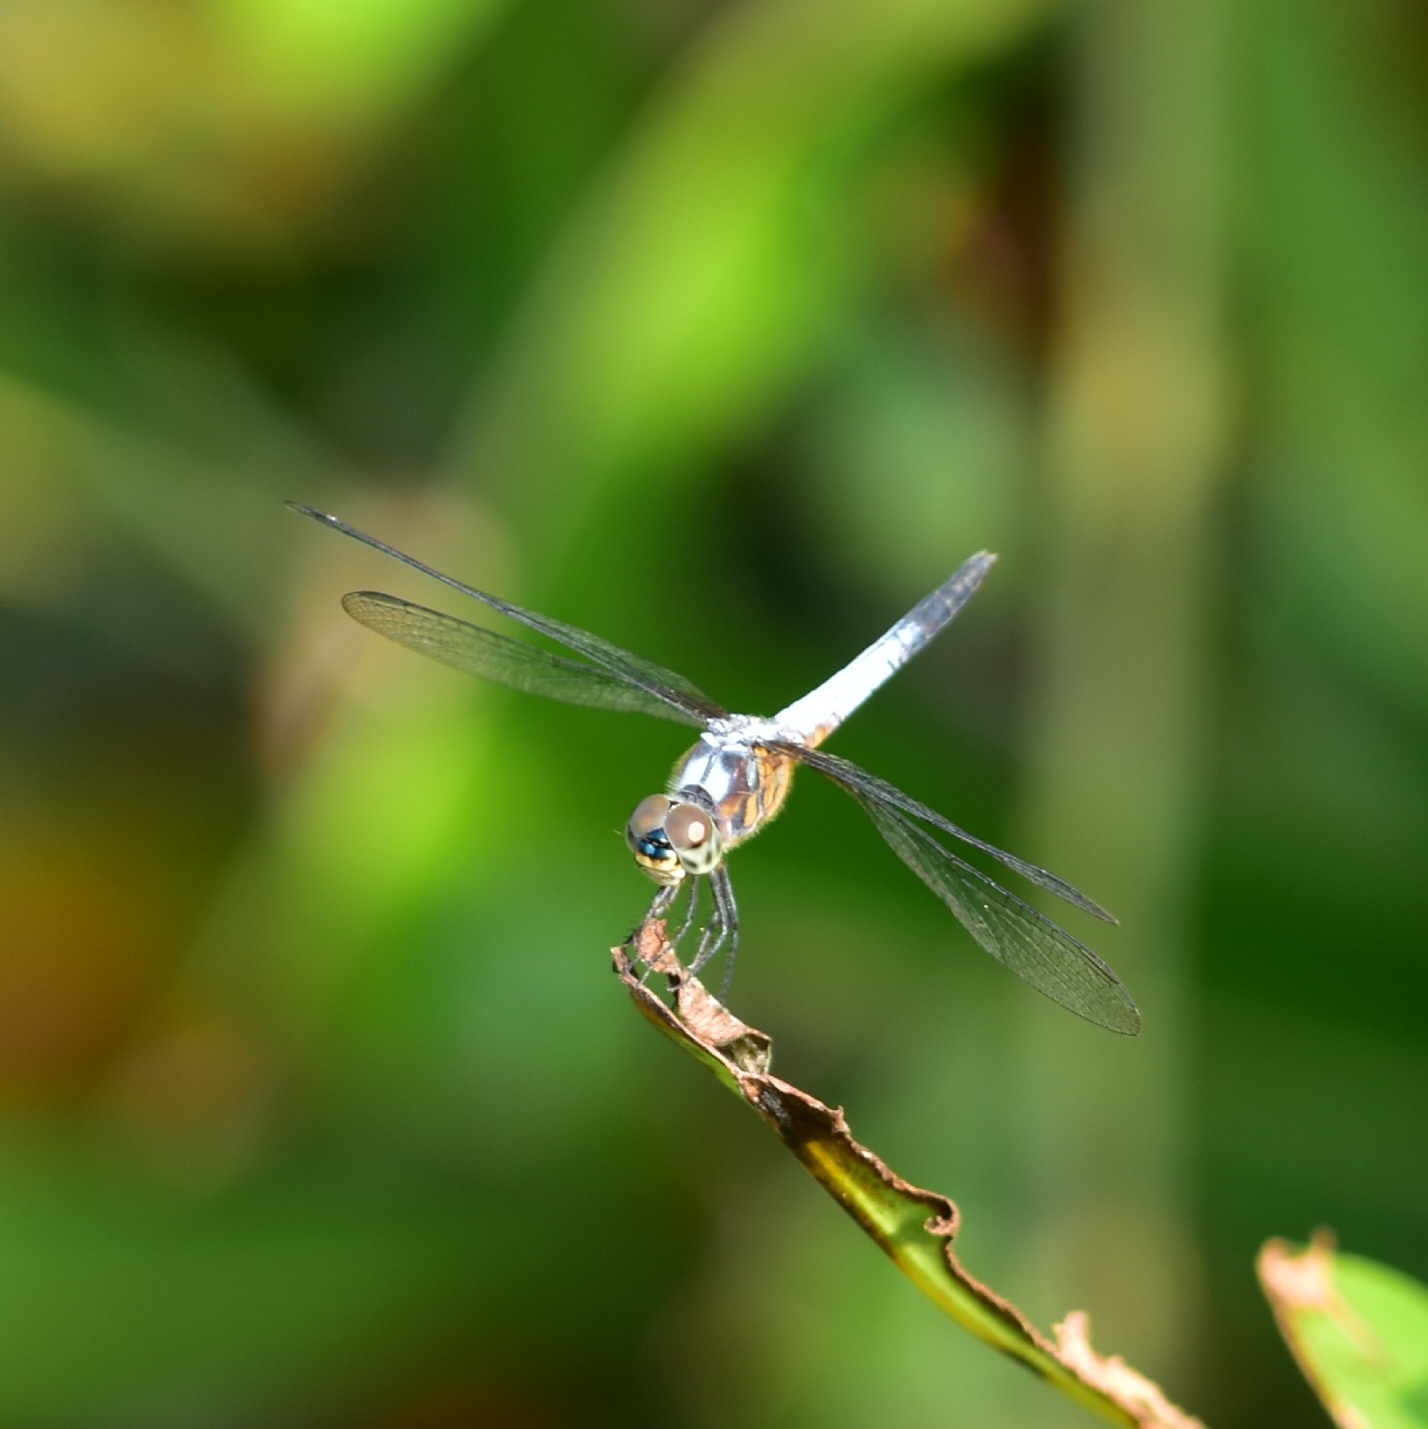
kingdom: Animalia
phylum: Arthropoda
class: Insecta
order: Odonata
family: Libellulidae
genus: Brachydiplax
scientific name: Brachydiplax chalybea
